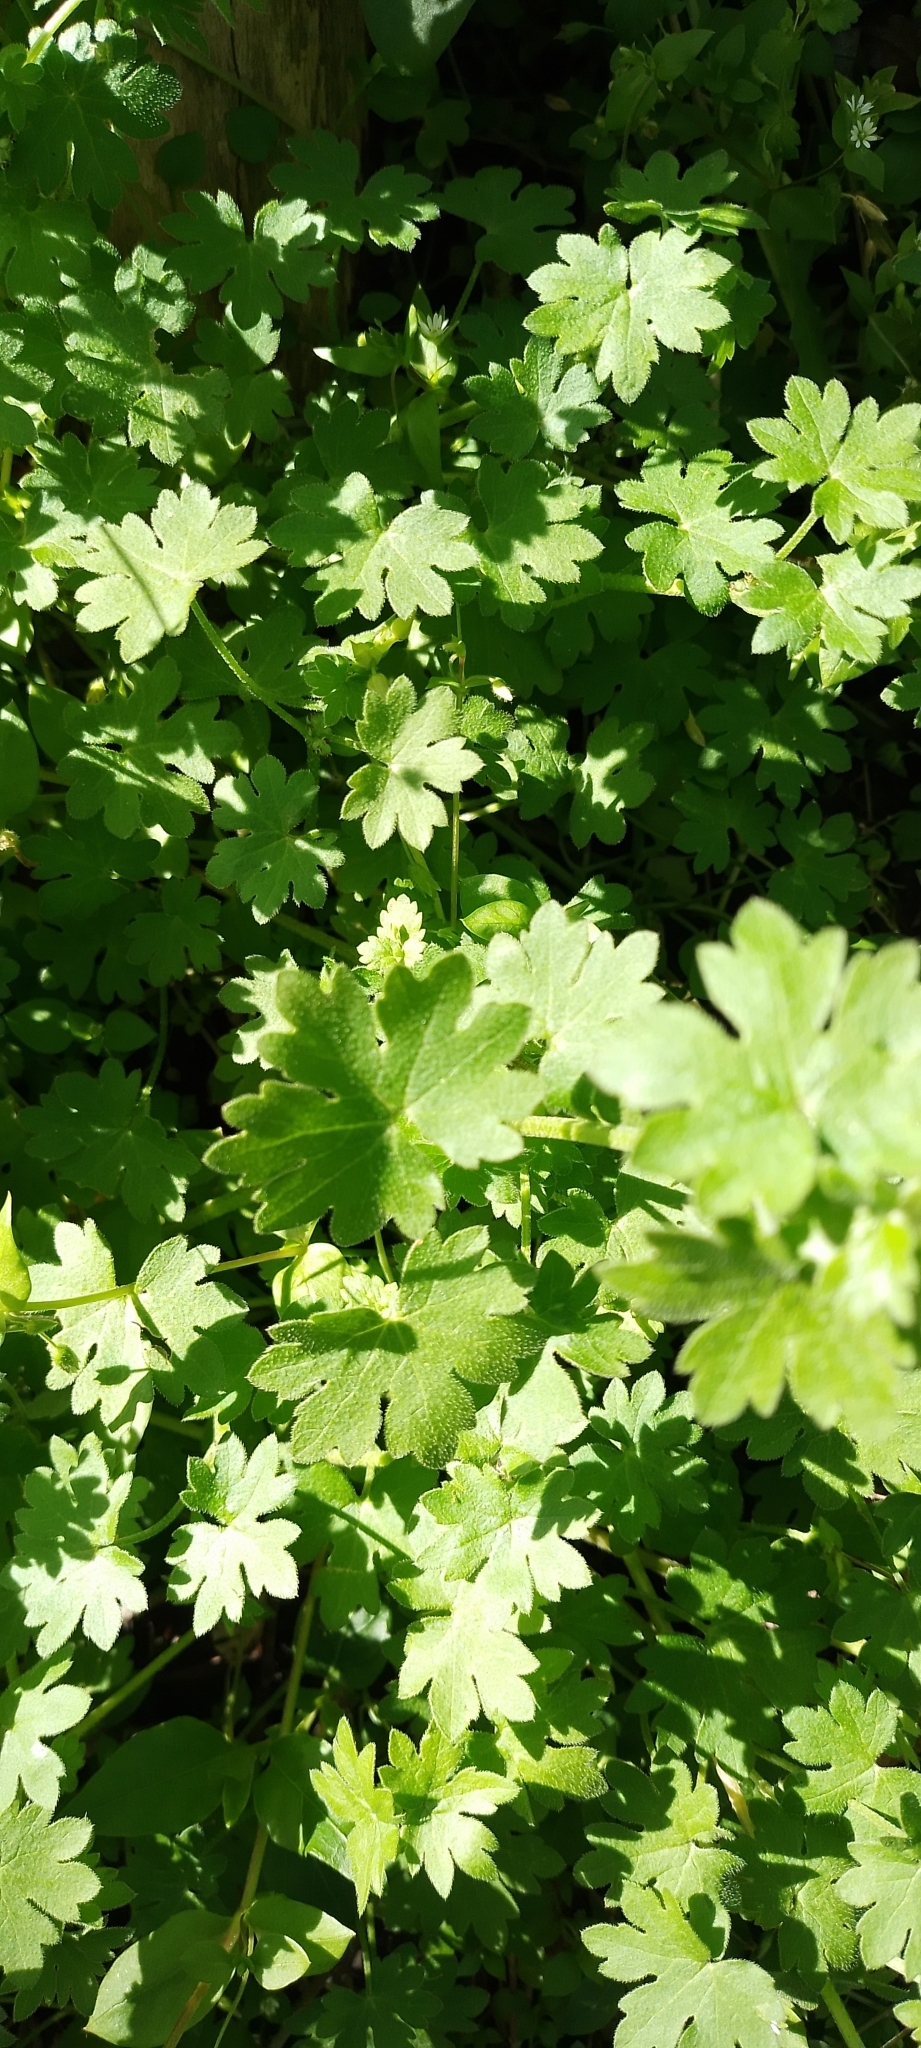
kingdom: Plantae
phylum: Tracheophyta
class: Magnoliopsida
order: Apiales
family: Apiaceae
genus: Bowlesia
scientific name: Bowlesia incana
